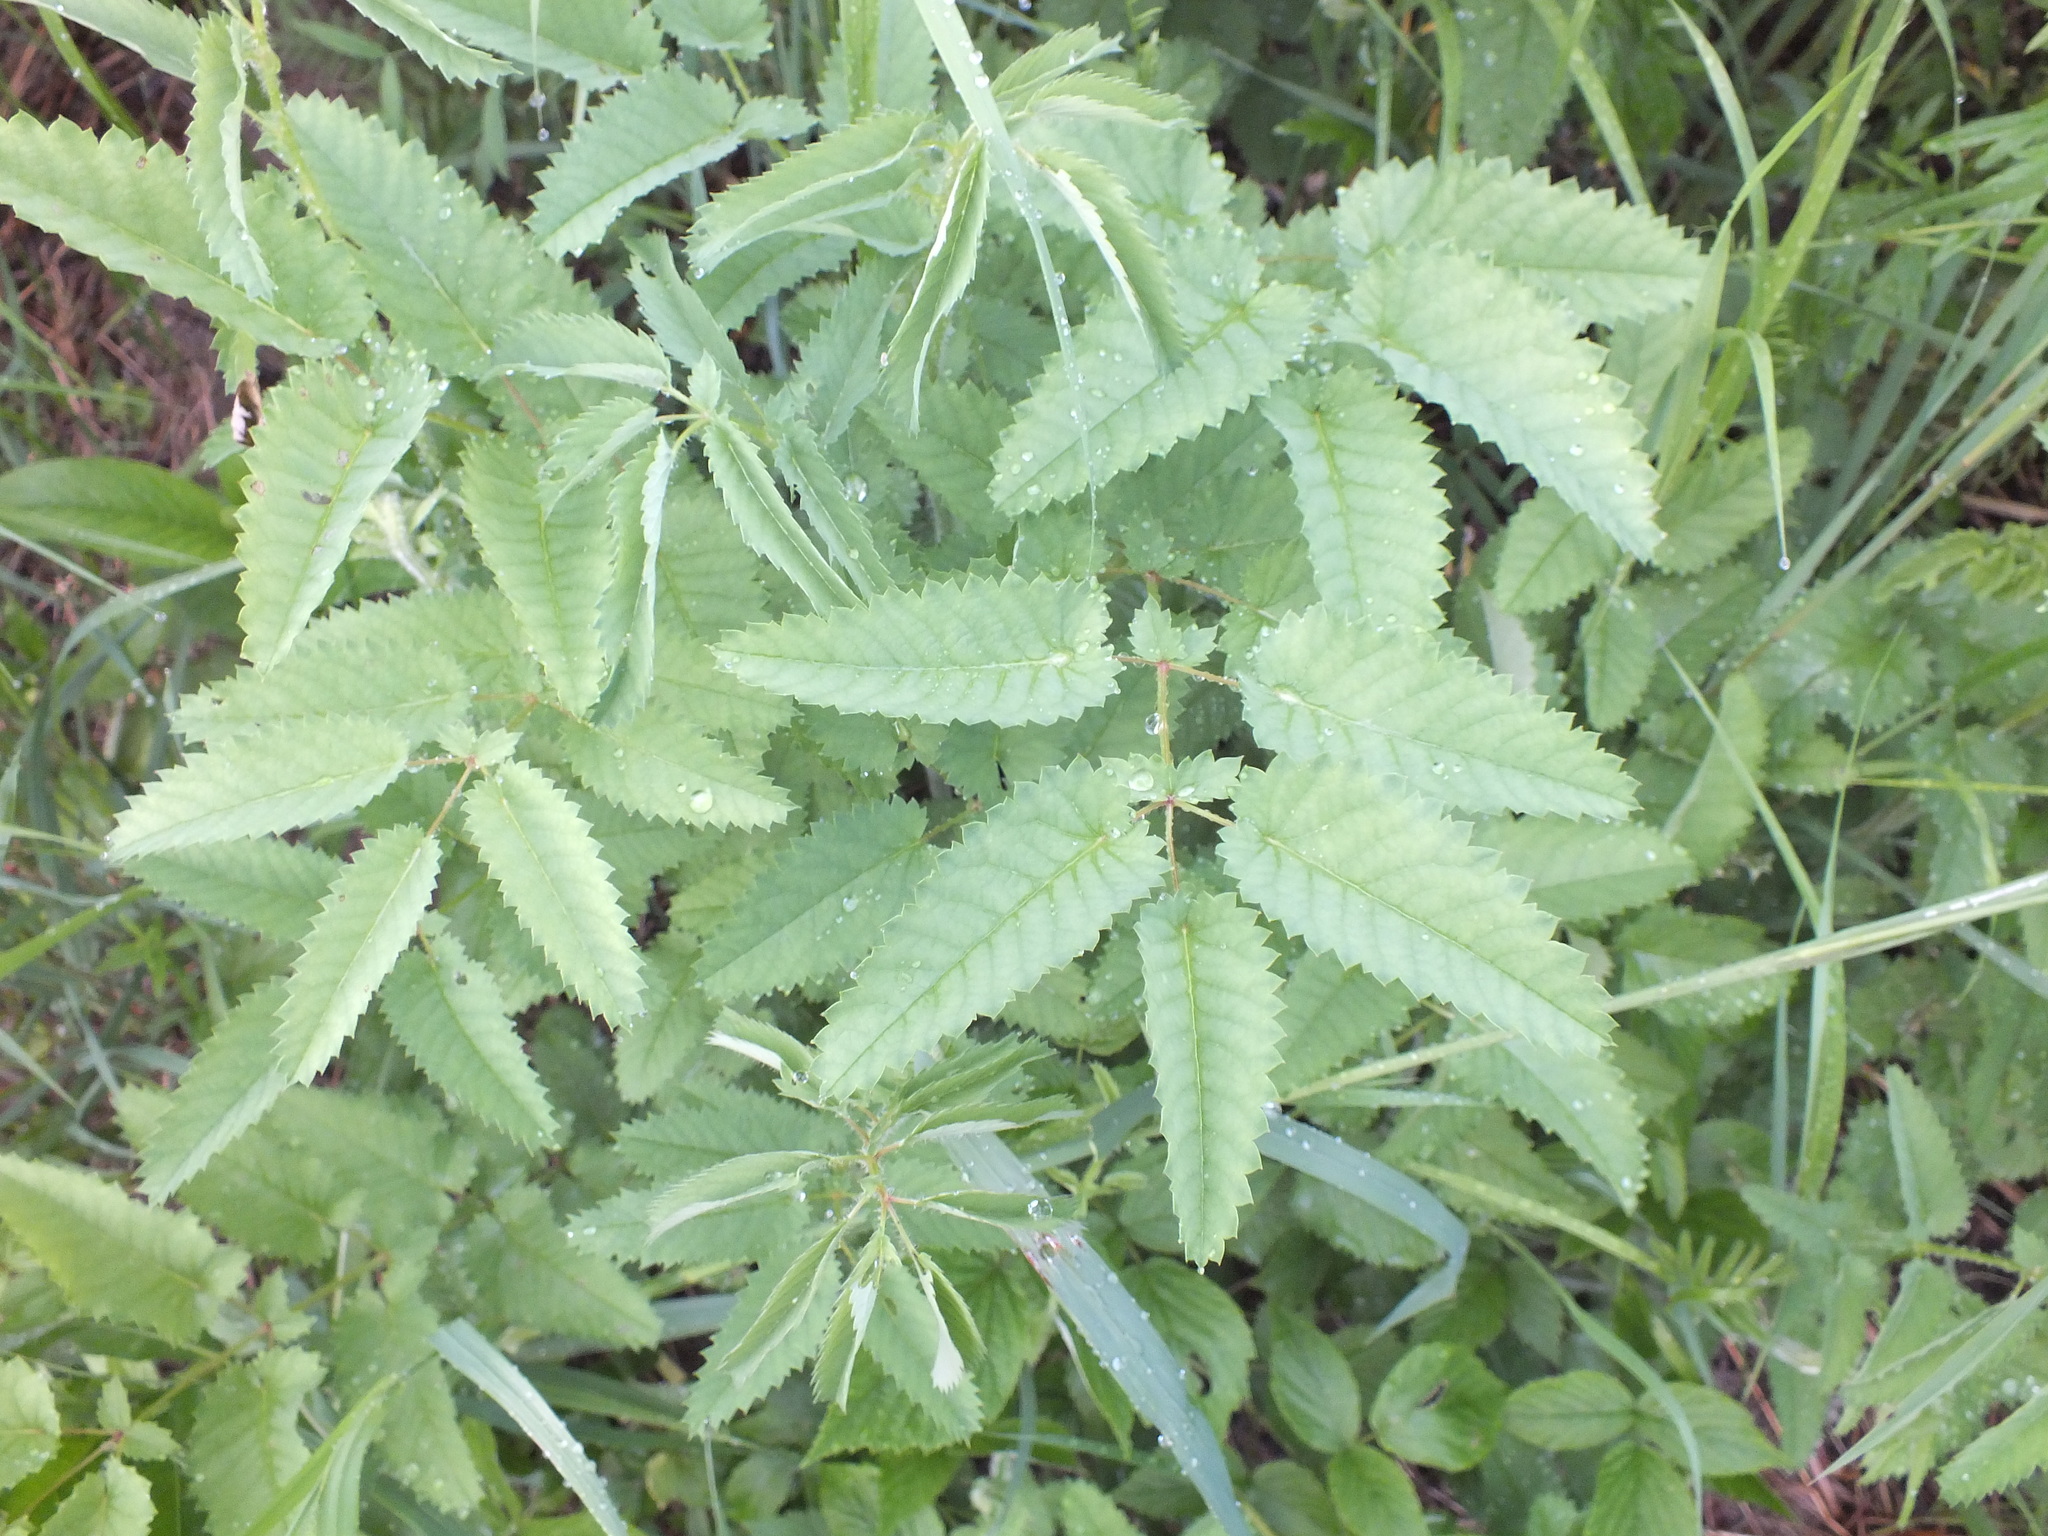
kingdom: Plantae
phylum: Tracheophyta
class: Magnoliopsida
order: Rosales
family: Rosaceae
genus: Sanguisorba
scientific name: Sanguisorba officinalis
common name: Great burnet
